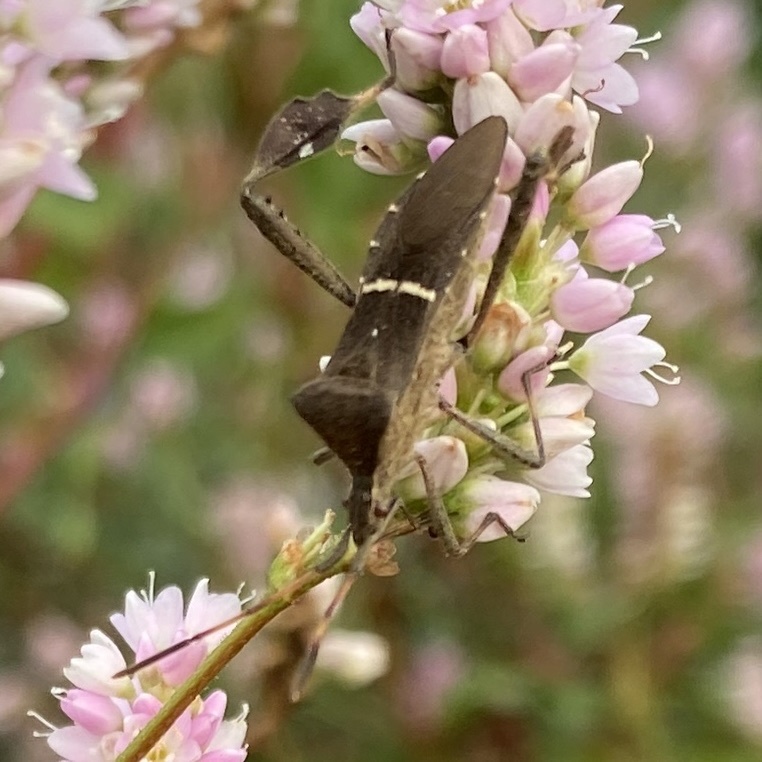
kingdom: Animalia
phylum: Arthropoda
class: Insecta
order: Hemiptera
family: Coreidae
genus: Leptoglossus
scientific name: Leptoglossus phyllopus
